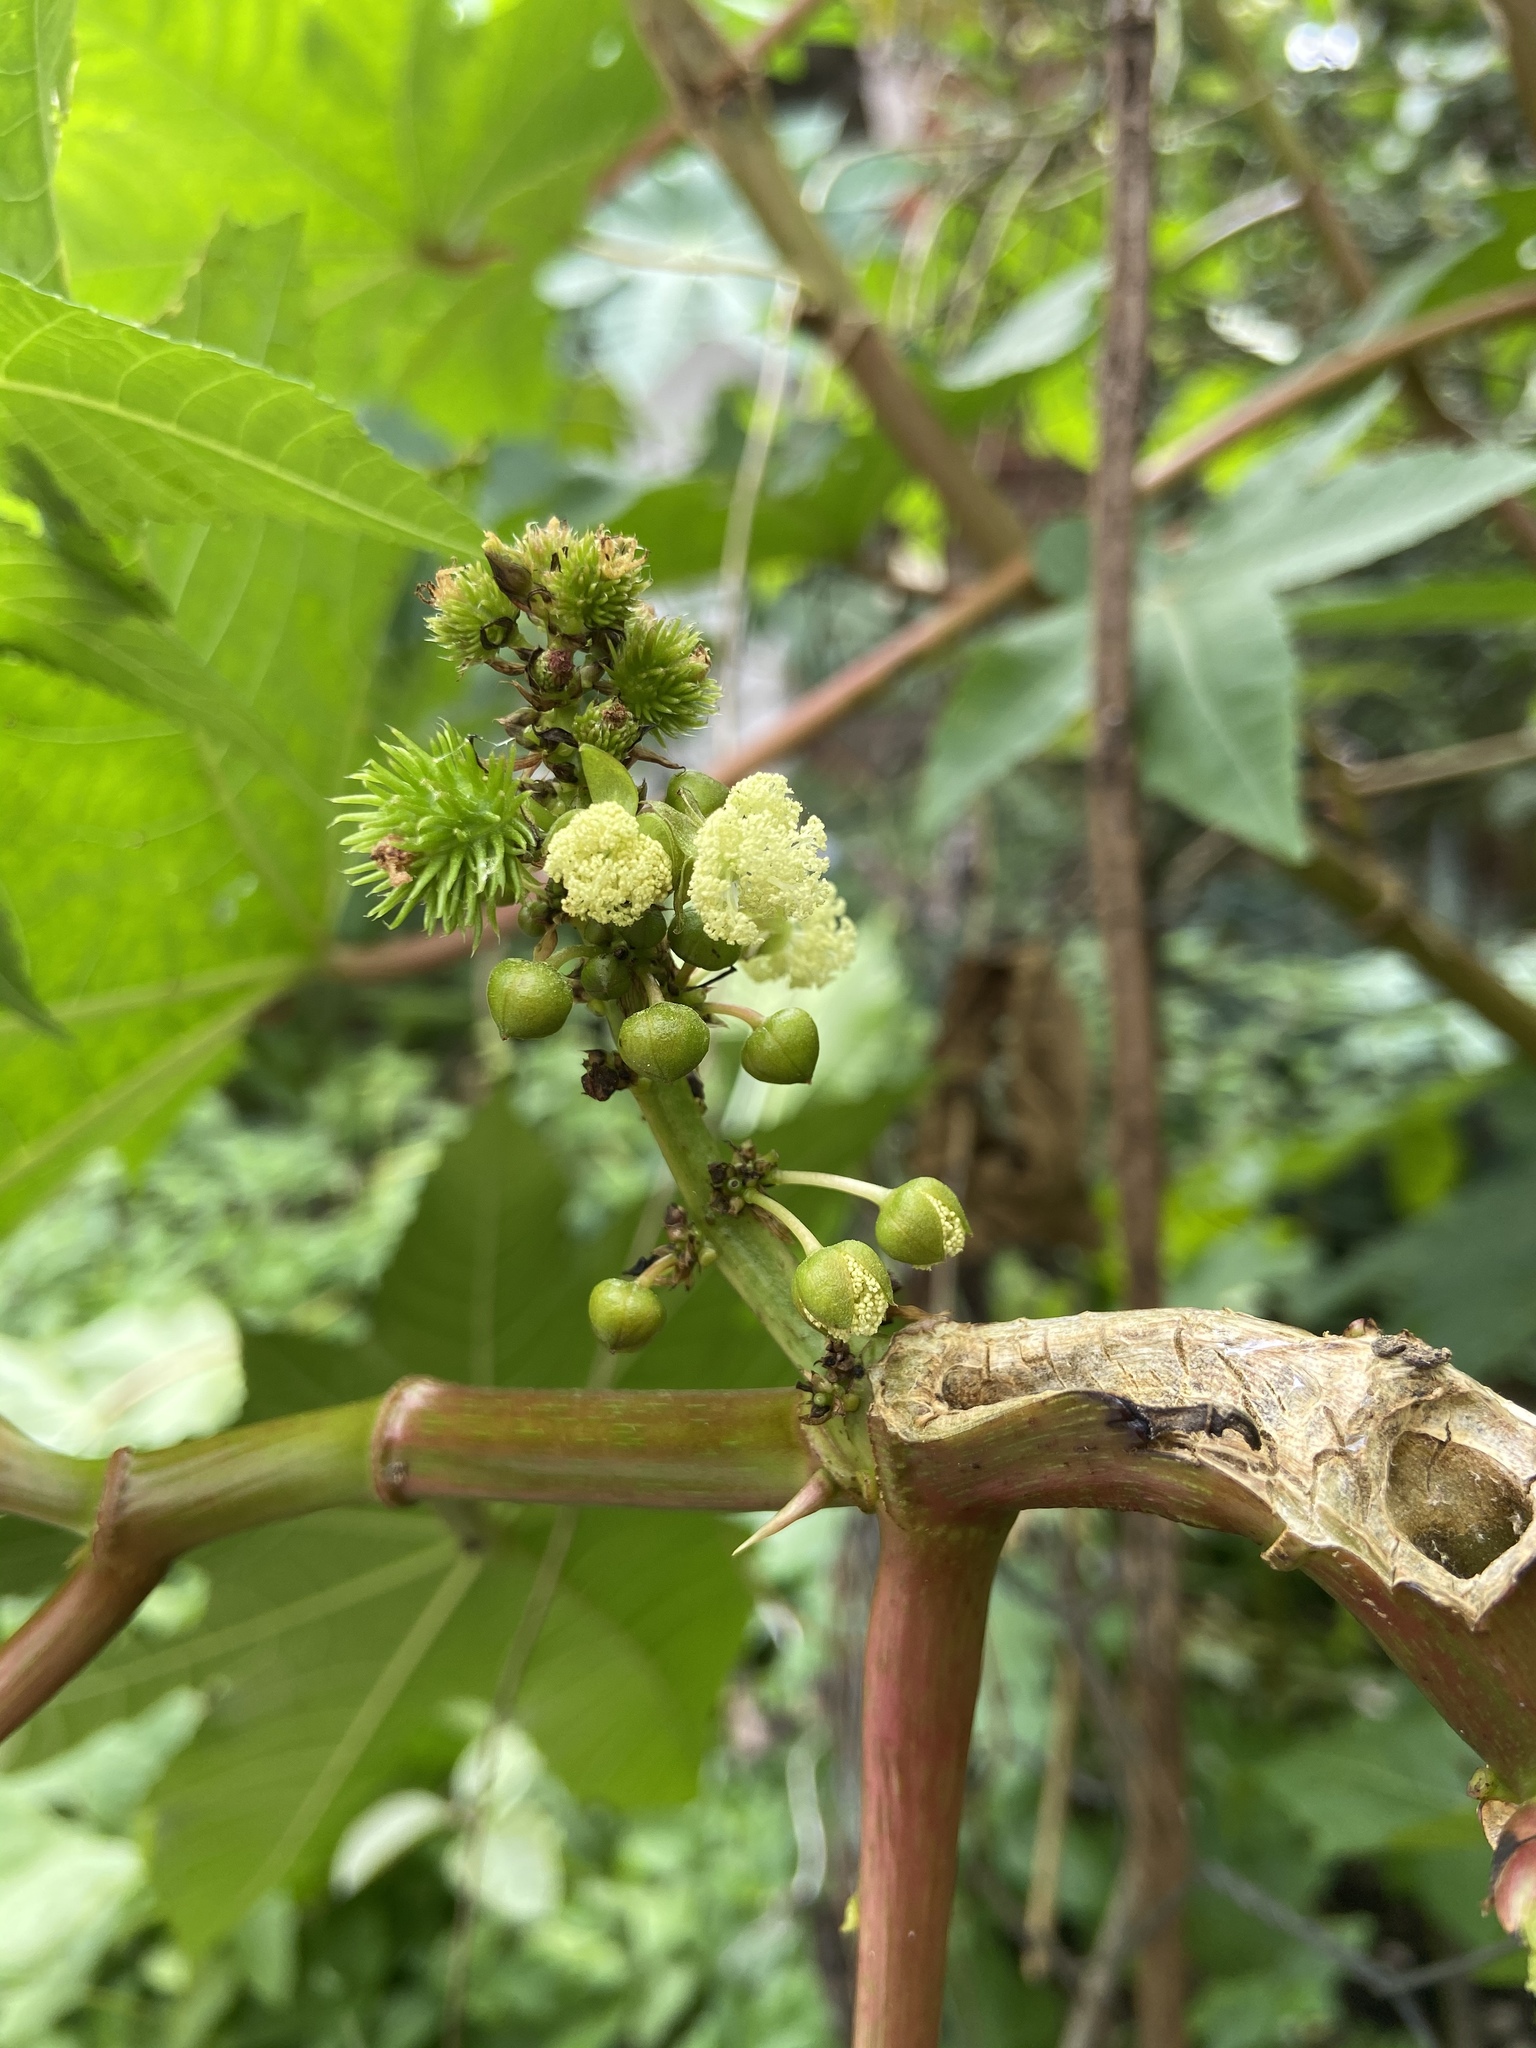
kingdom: Plantae
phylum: Tracheophyta
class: Magnoliopsida
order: Malpighiales
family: Euphorbiaceae
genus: Ricinus
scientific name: Ricinus communis
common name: Castor-oil-plant
